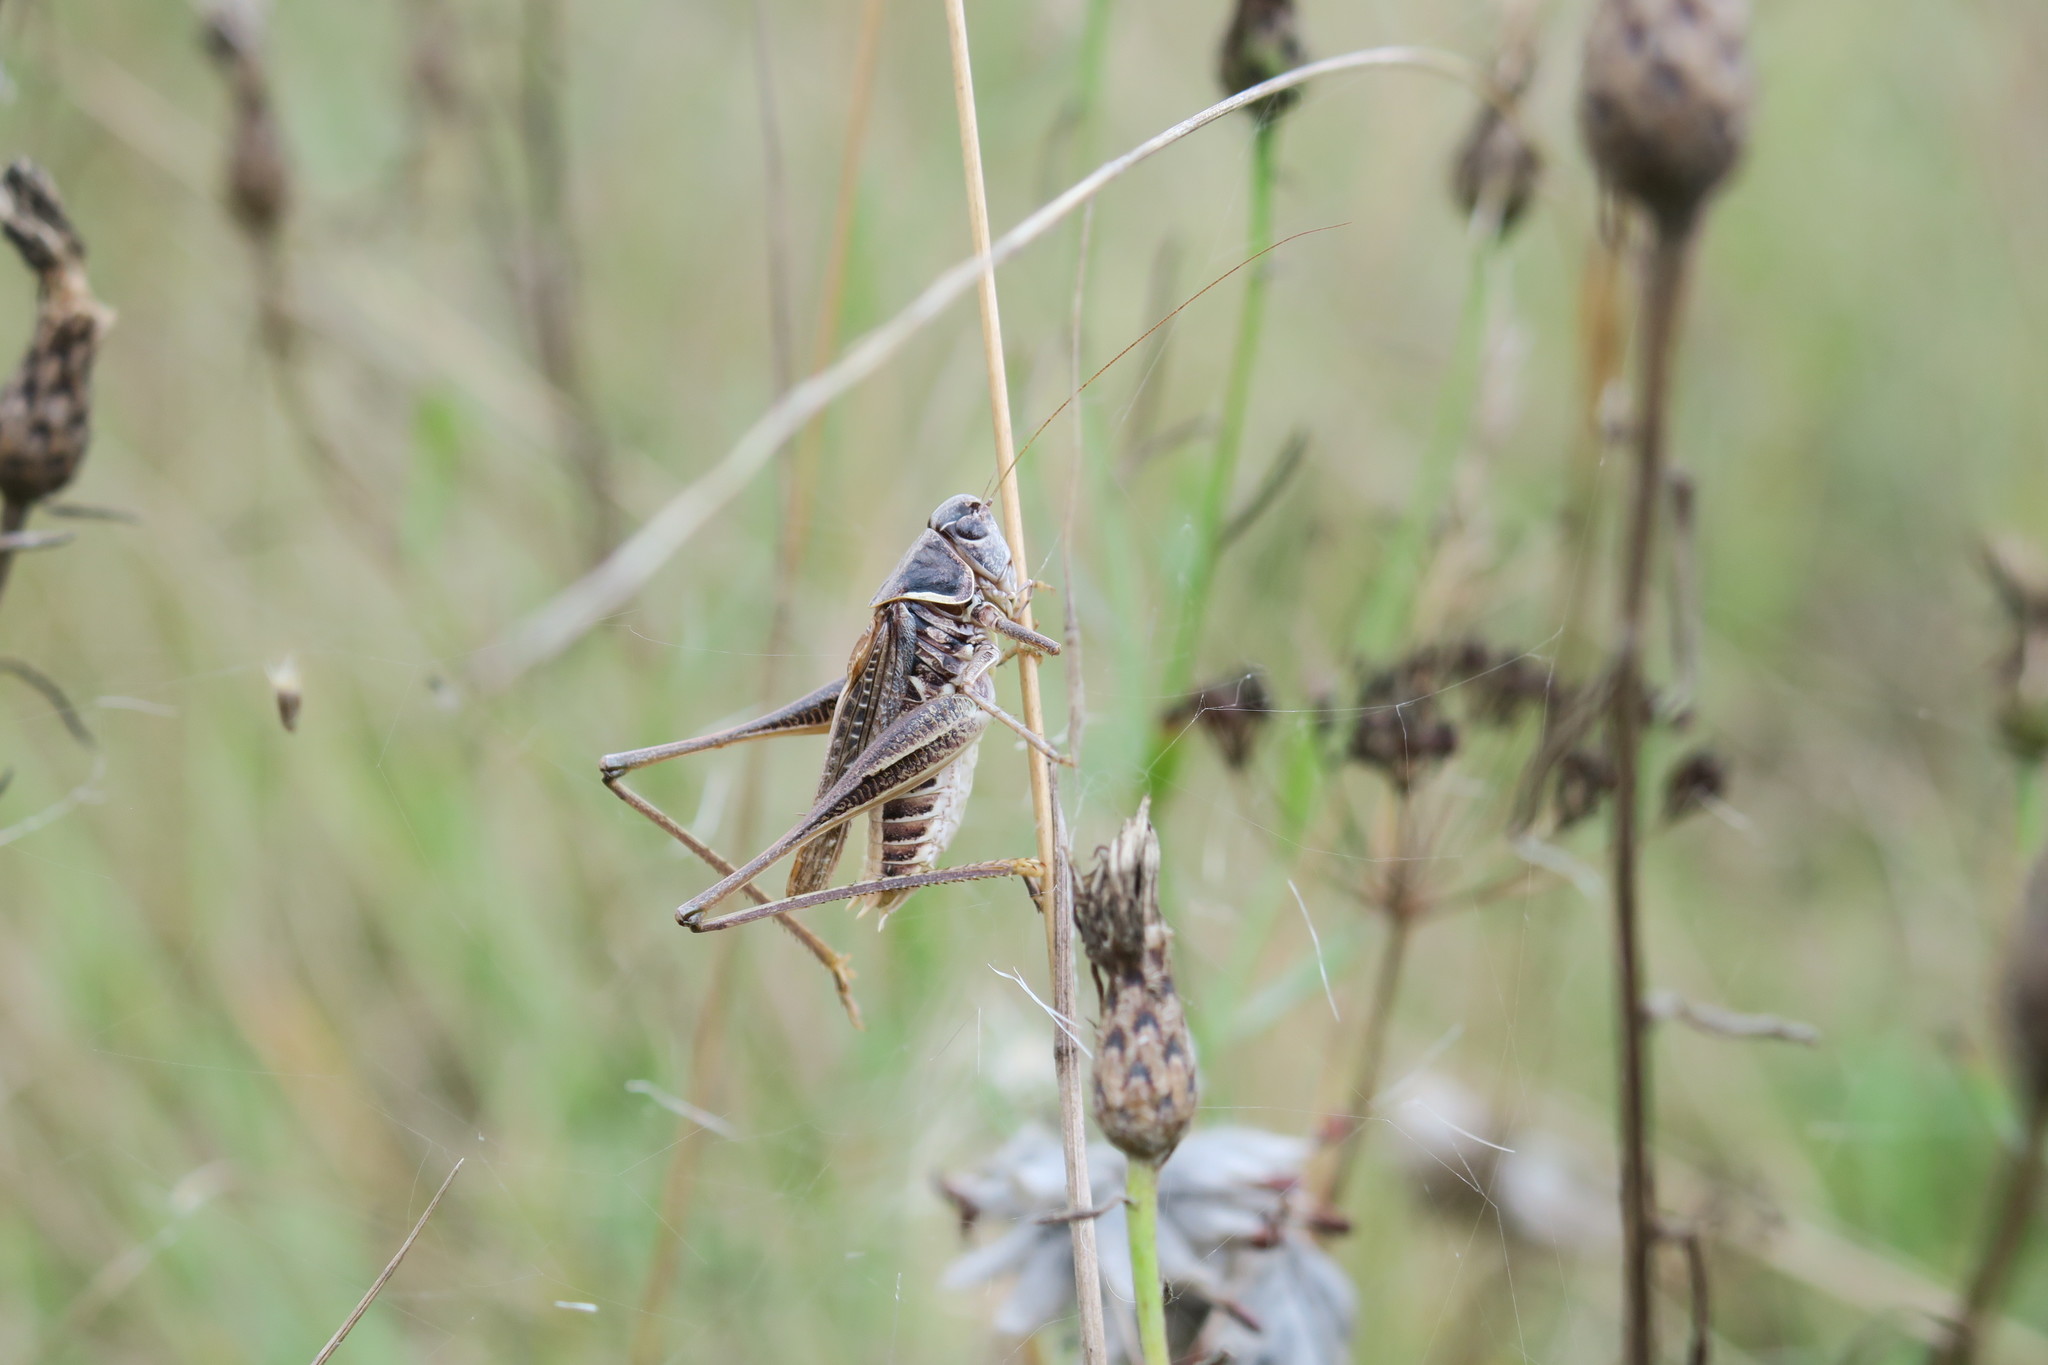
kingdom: Animalia
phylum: Arthropoda
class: Insecta
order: Orthoptera
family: Tettigoniidae
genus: Montana
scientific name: Montana montana
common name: Steppe bush-cricket
